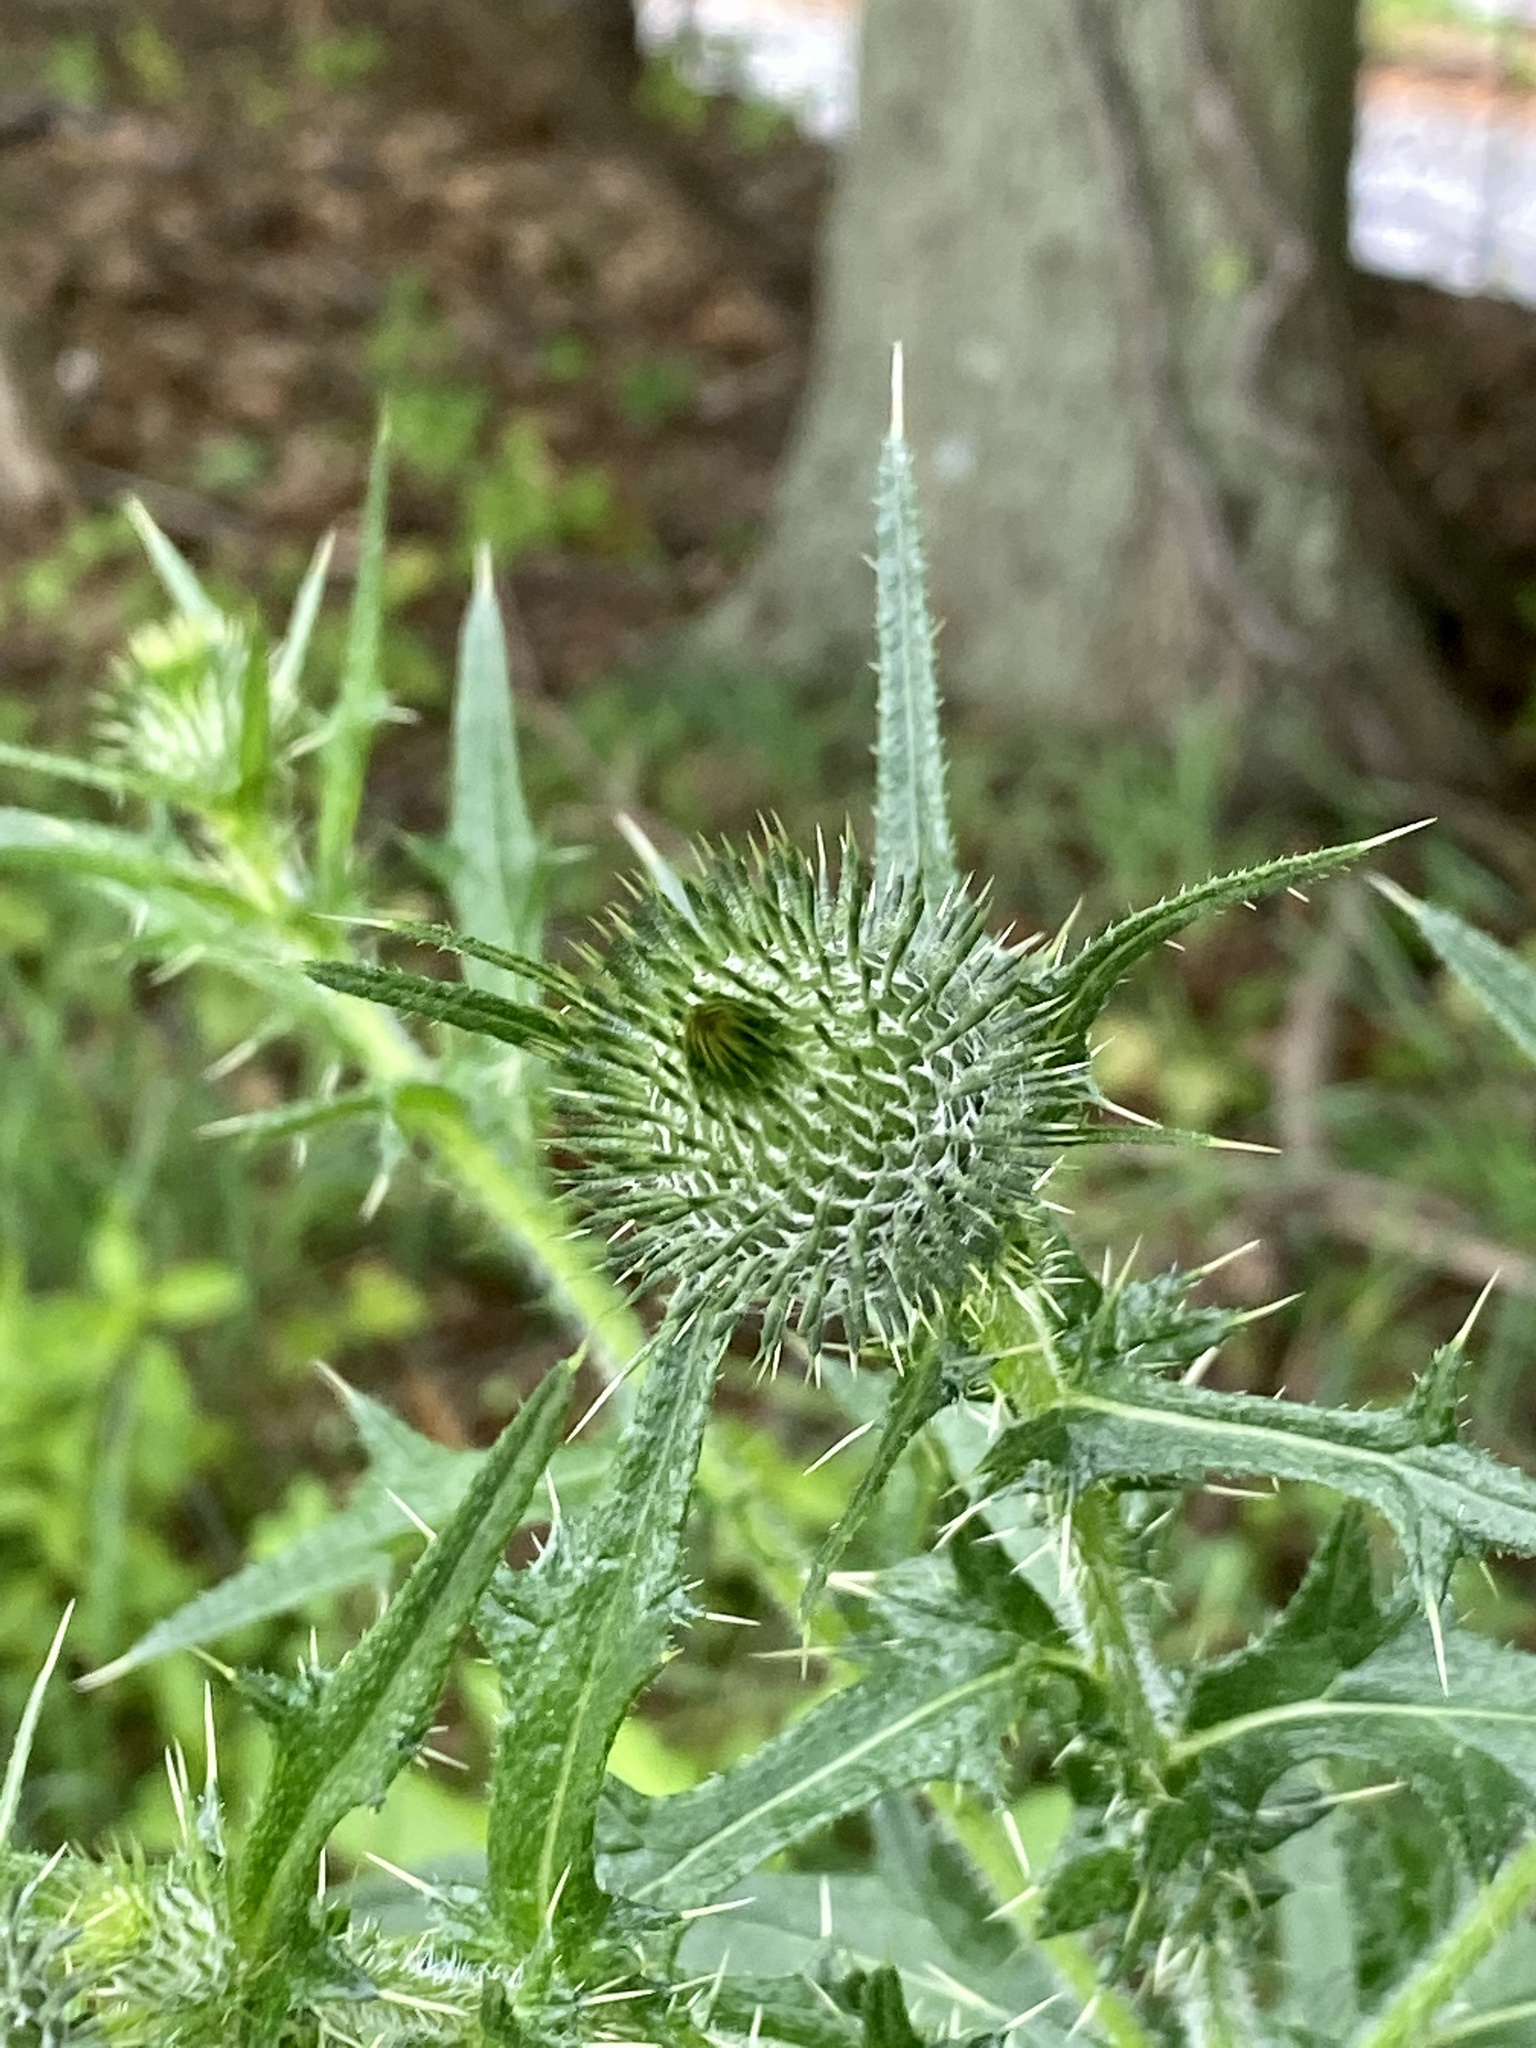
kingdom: Plantae
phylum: Tracheophyta
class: Magnoliopsida
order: Asterales
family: Asteraceae
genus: Cirsium
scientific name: Cirsium vulgare
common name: Bull thistle
